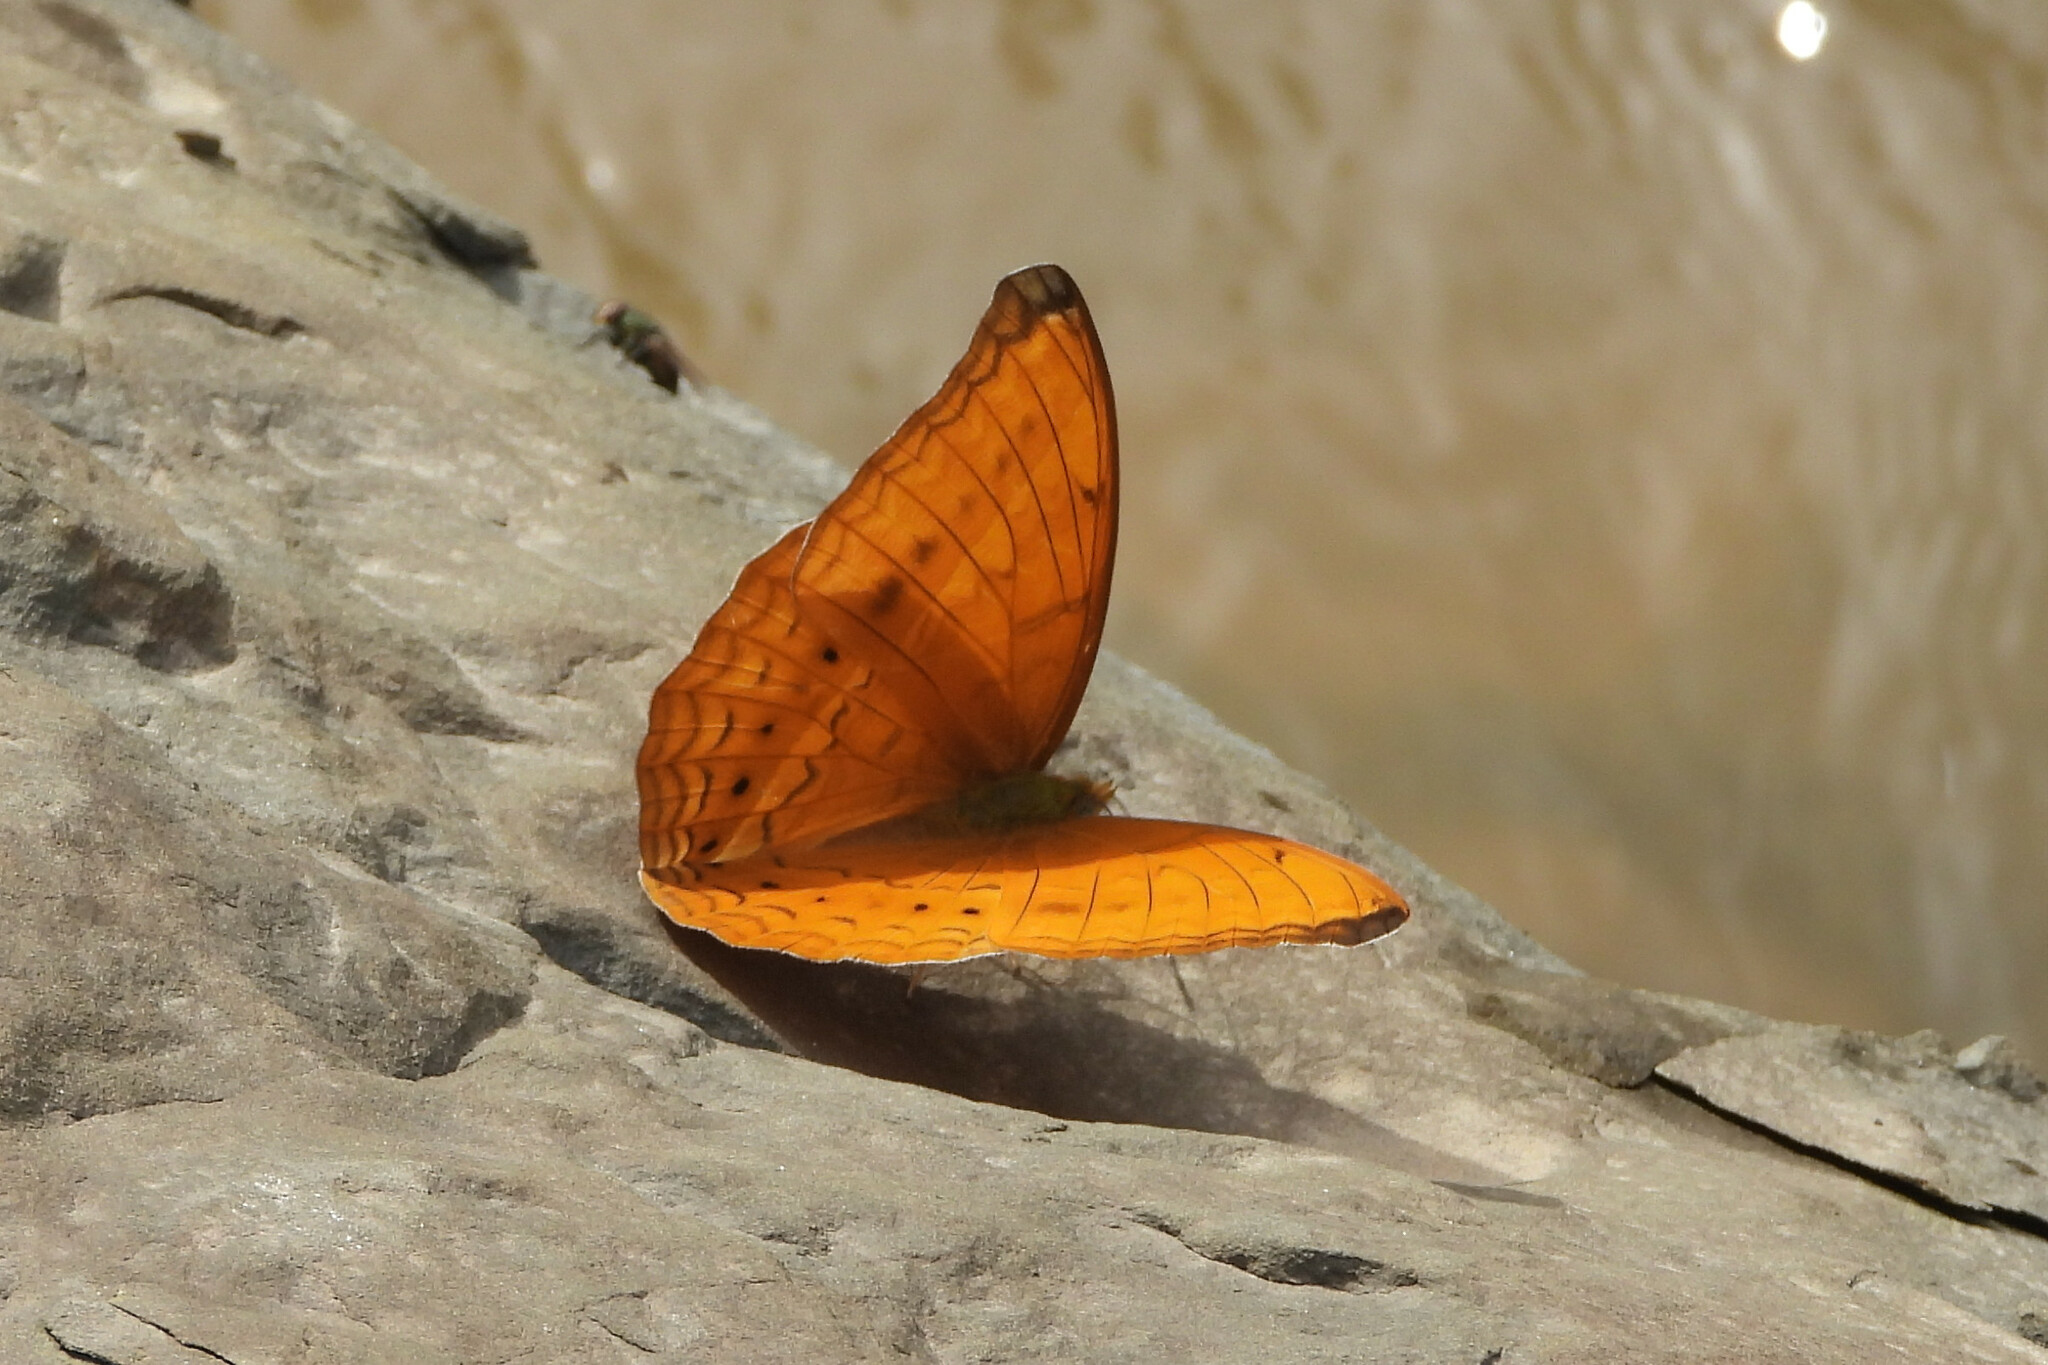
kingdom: Animalia
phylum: Arthropoda
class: Insecta
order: Lepidoptera
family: Nymphalidae
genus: Cirrochroa
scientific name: Cirrochroa aoris
